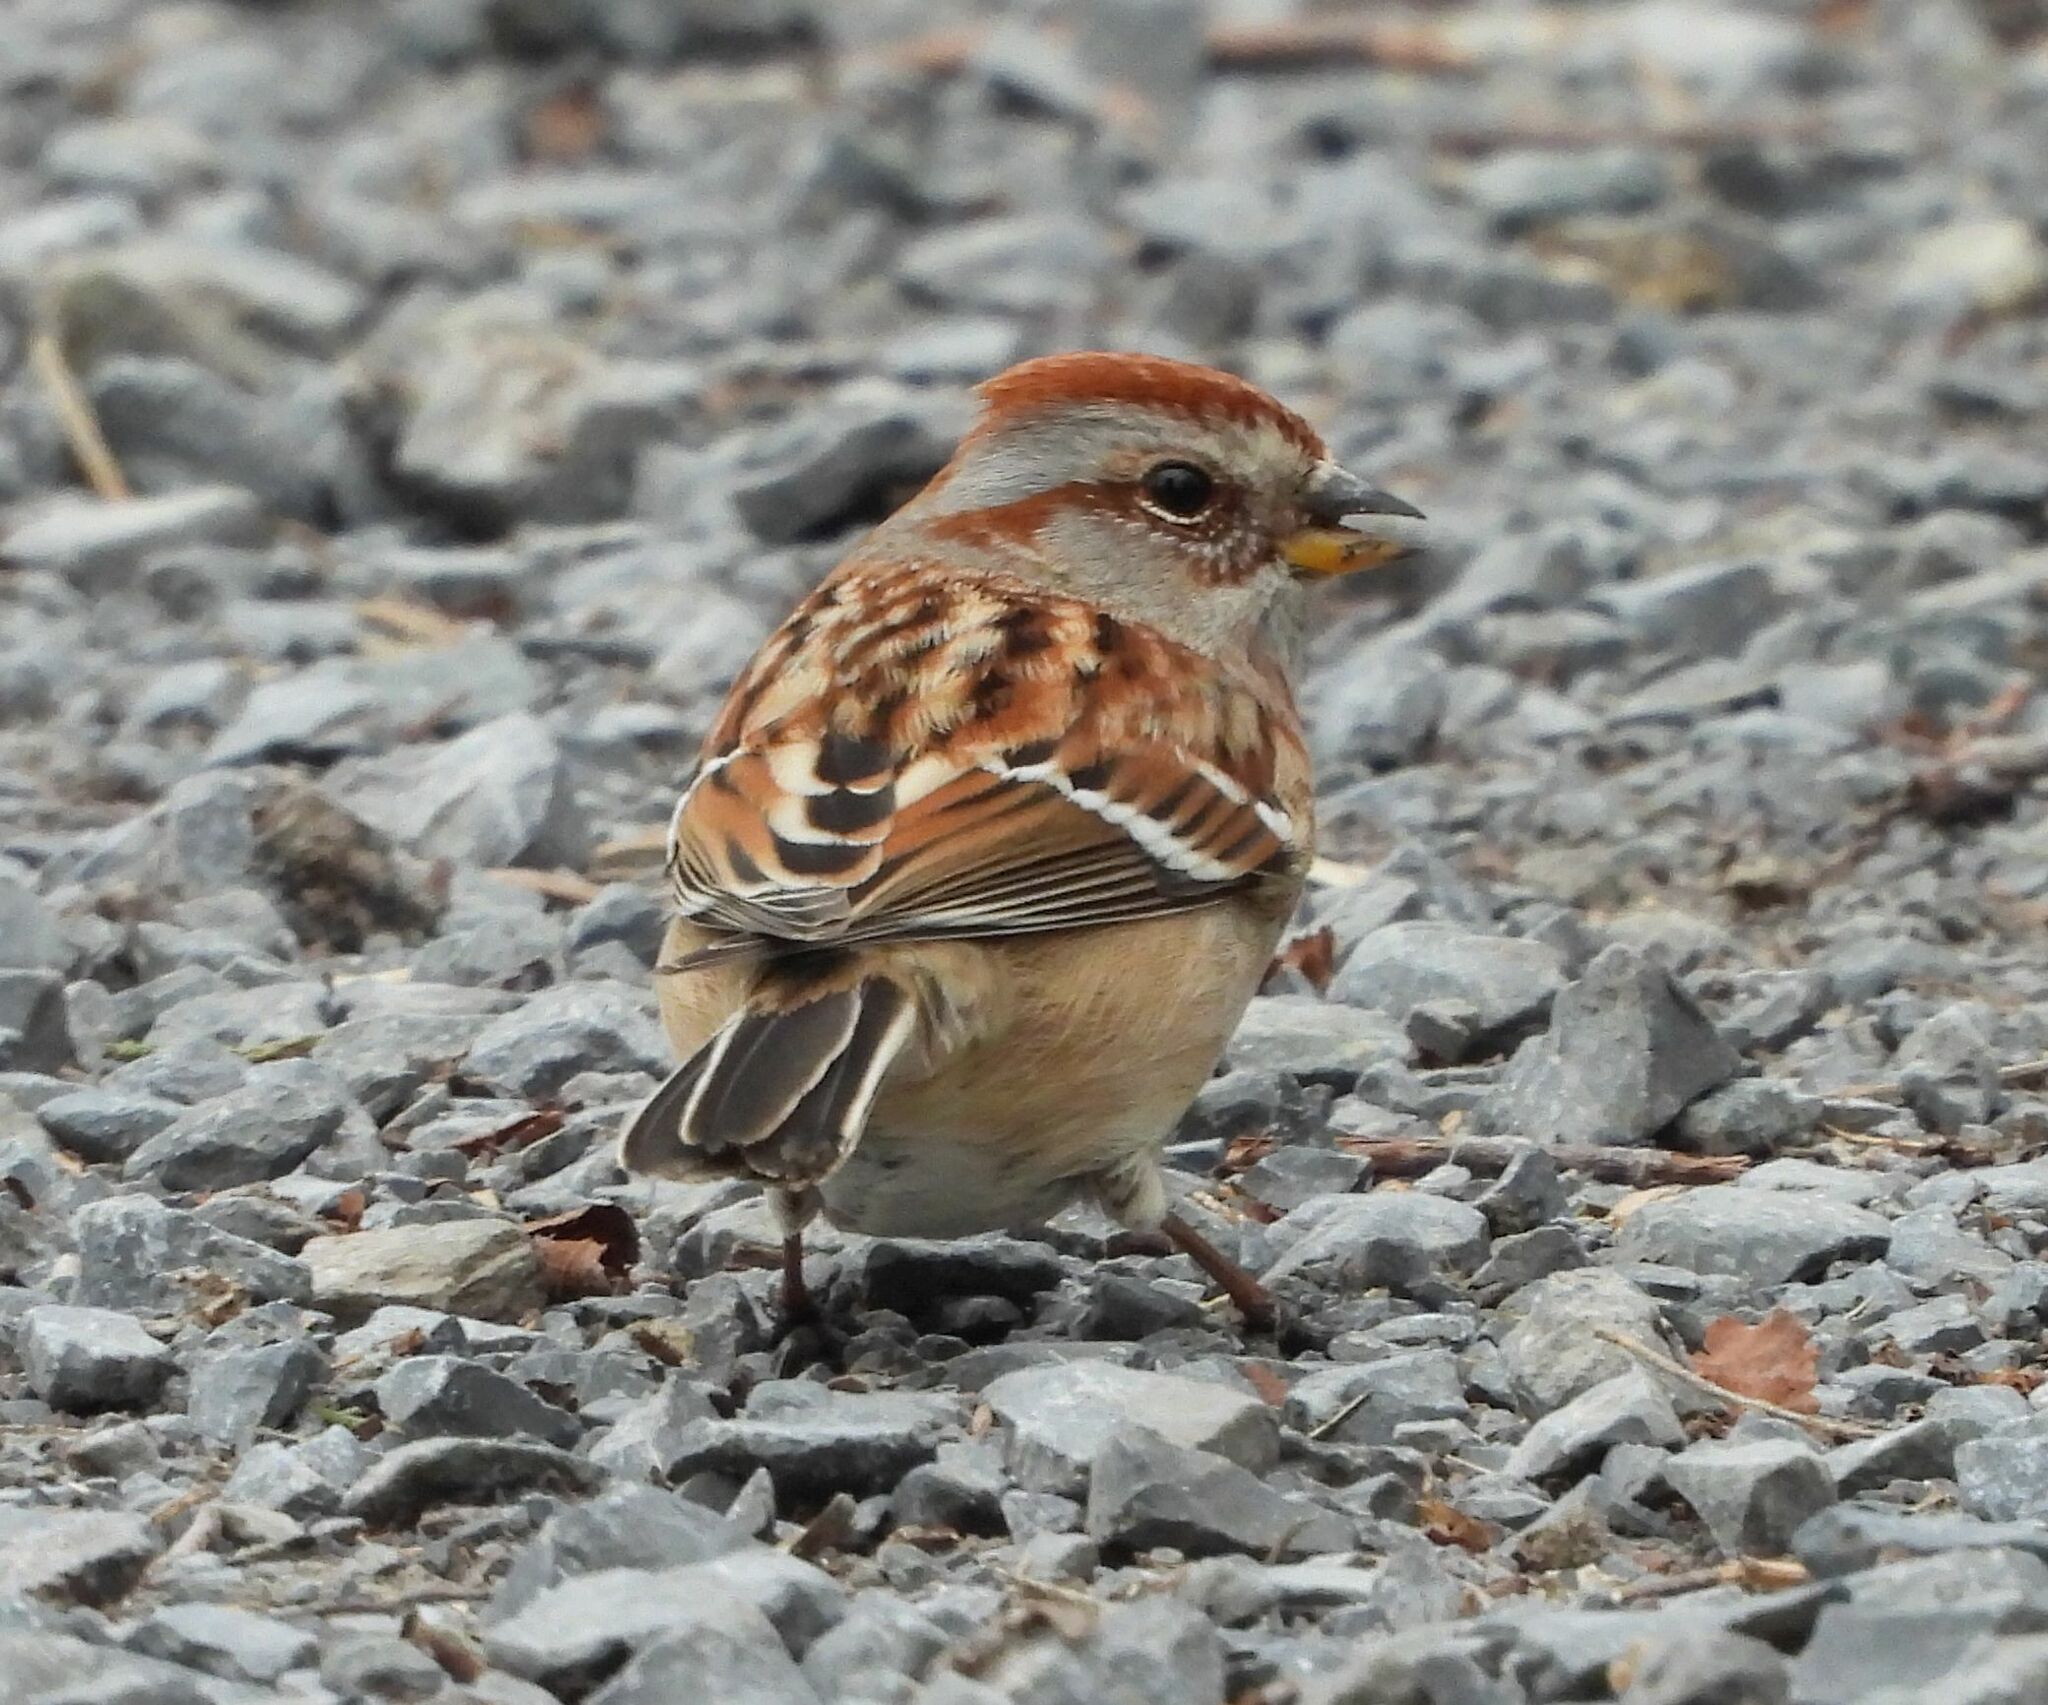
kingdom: Animalia
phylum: Chordata
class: Aves
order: Passeriformes
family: Passerellidae
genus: Spizelloides
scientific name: Spizelloides arborea
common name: American tree sparrow
